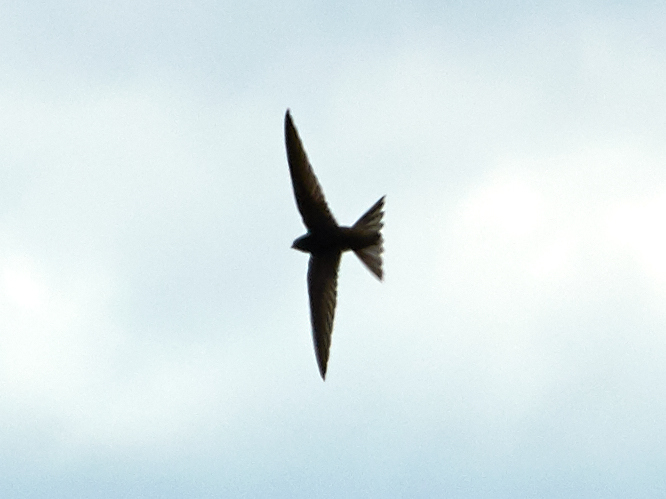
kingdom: Animalia
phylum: Chordata
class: Aves
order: Apodiformes
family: Apodidae
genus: Apus
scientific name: Apus apus
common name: Common swift
